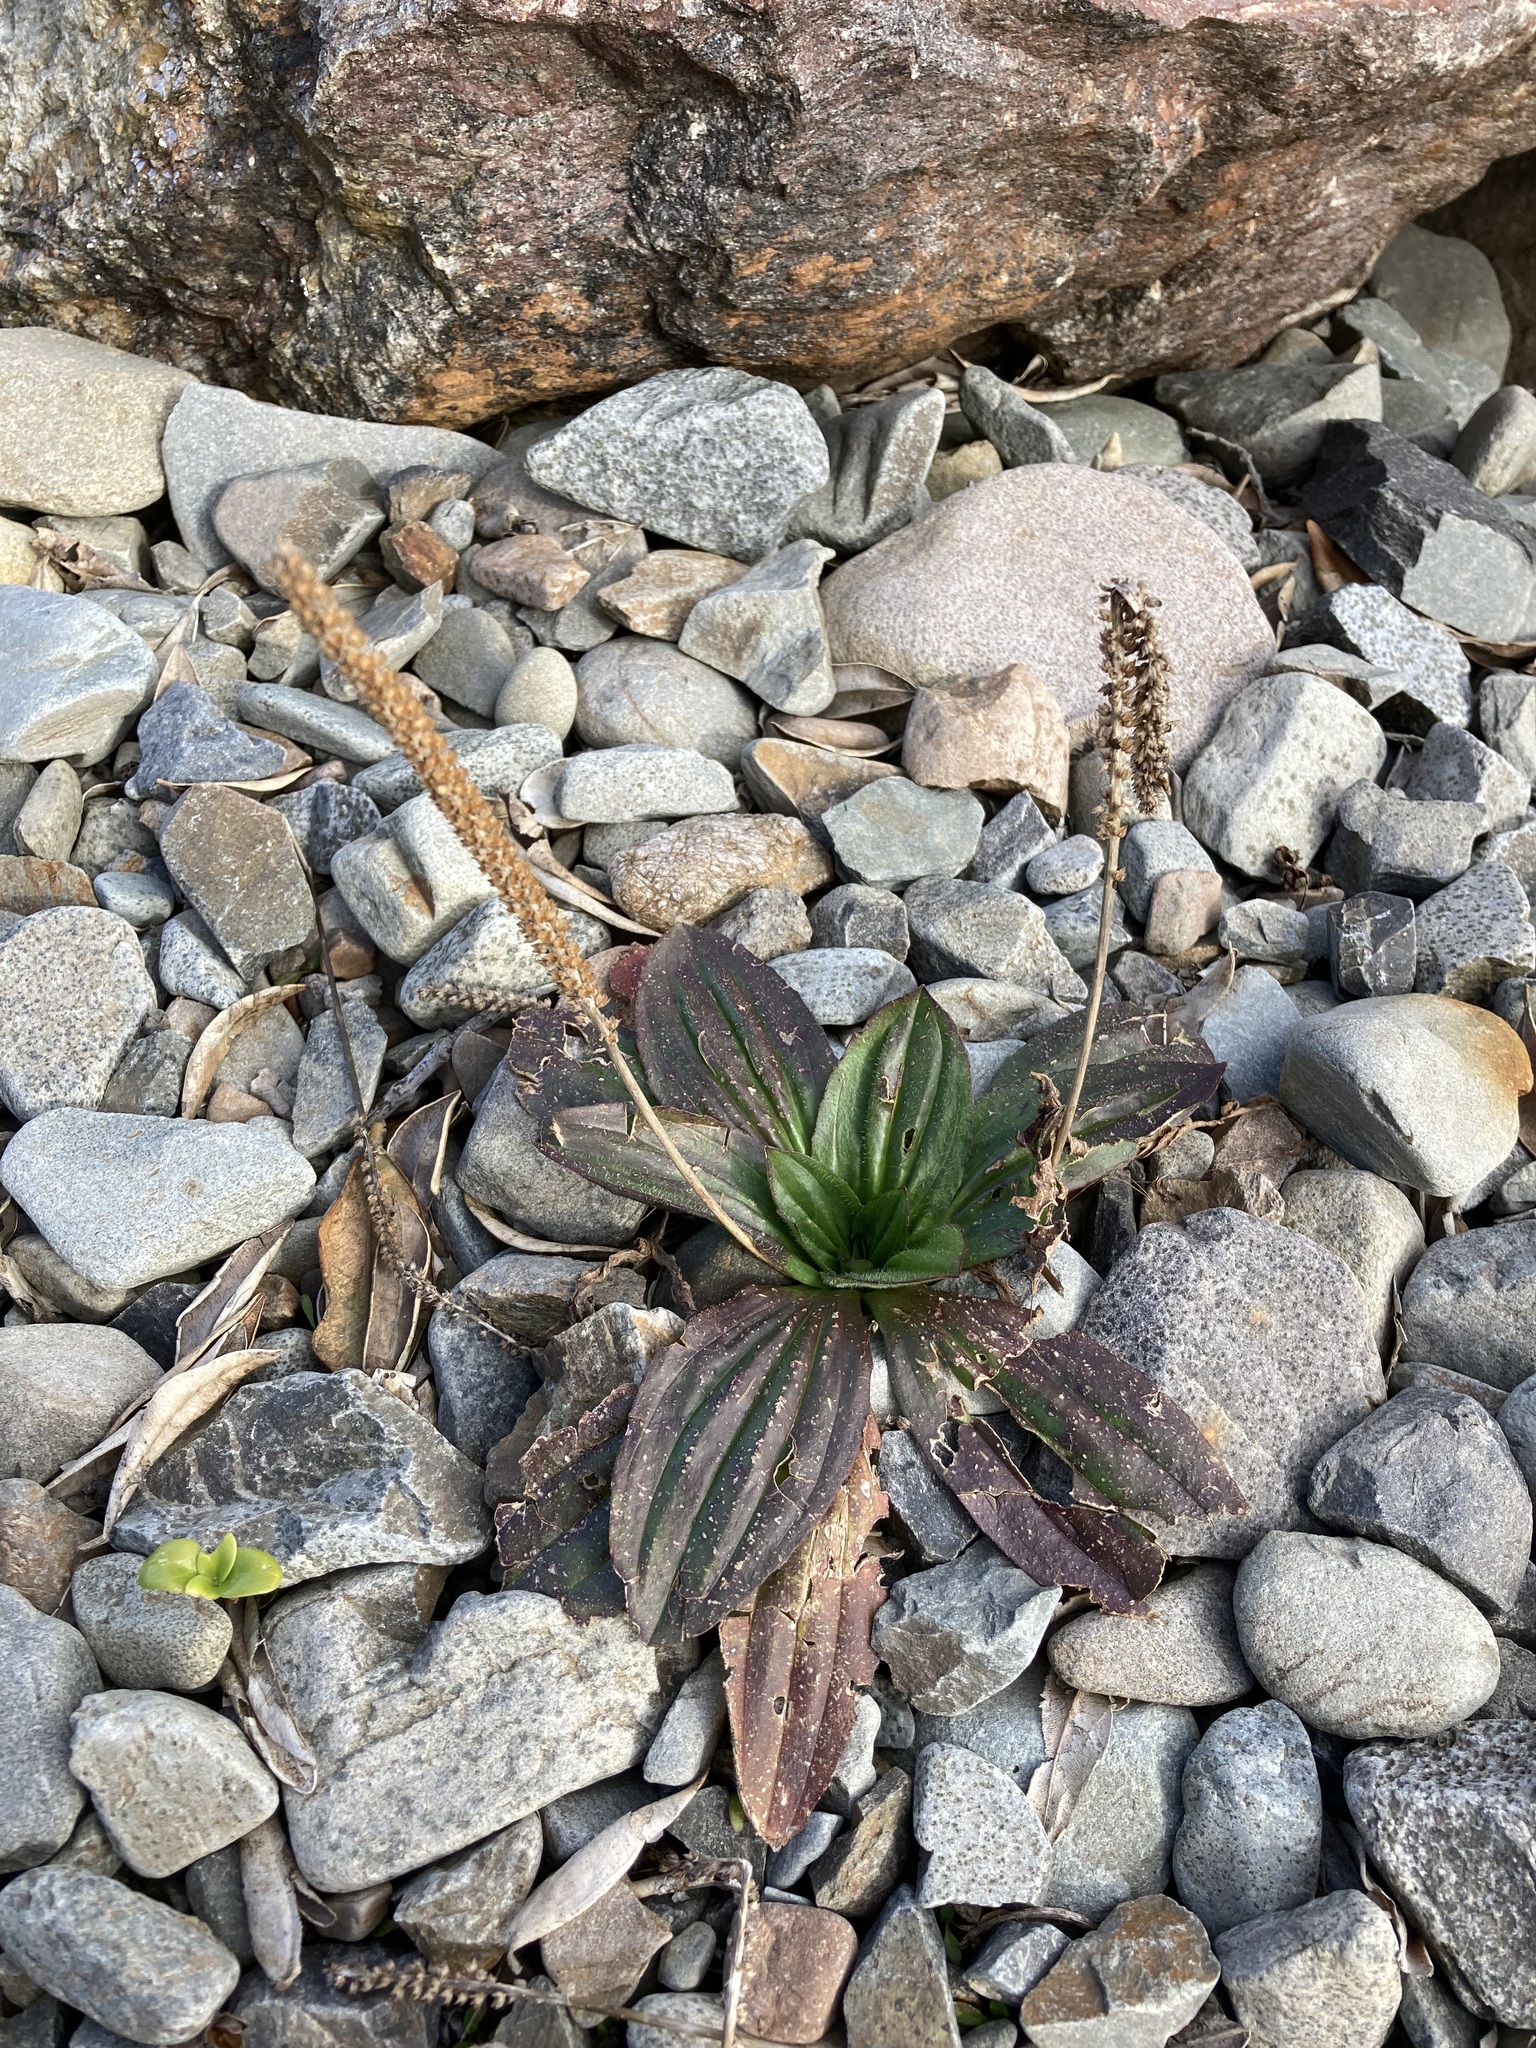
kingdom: Plantae
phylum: Tracheophyta
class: Magnoliopsida
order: Lamiales
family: Plantaginaceae
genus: Plantago
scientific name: Plantago australis
